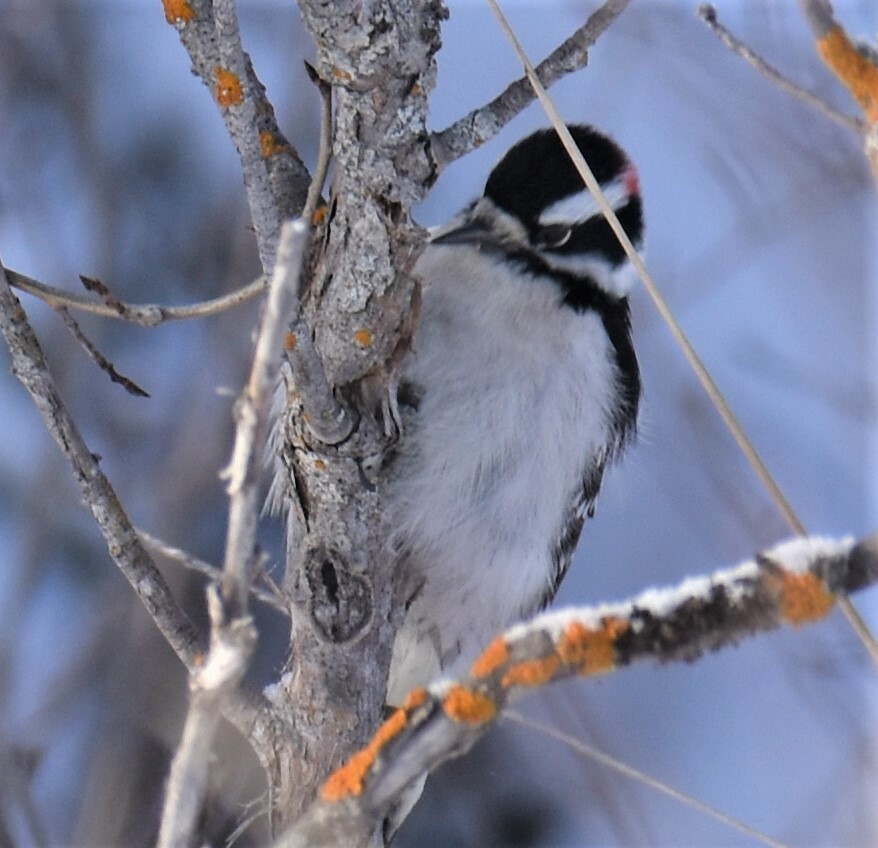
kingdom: Animalia
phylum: Chordata
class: Aves
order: Piciformes
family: Picidae
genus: Dryobates
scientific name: Dryobates pubescens
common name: Downy woodpecker
